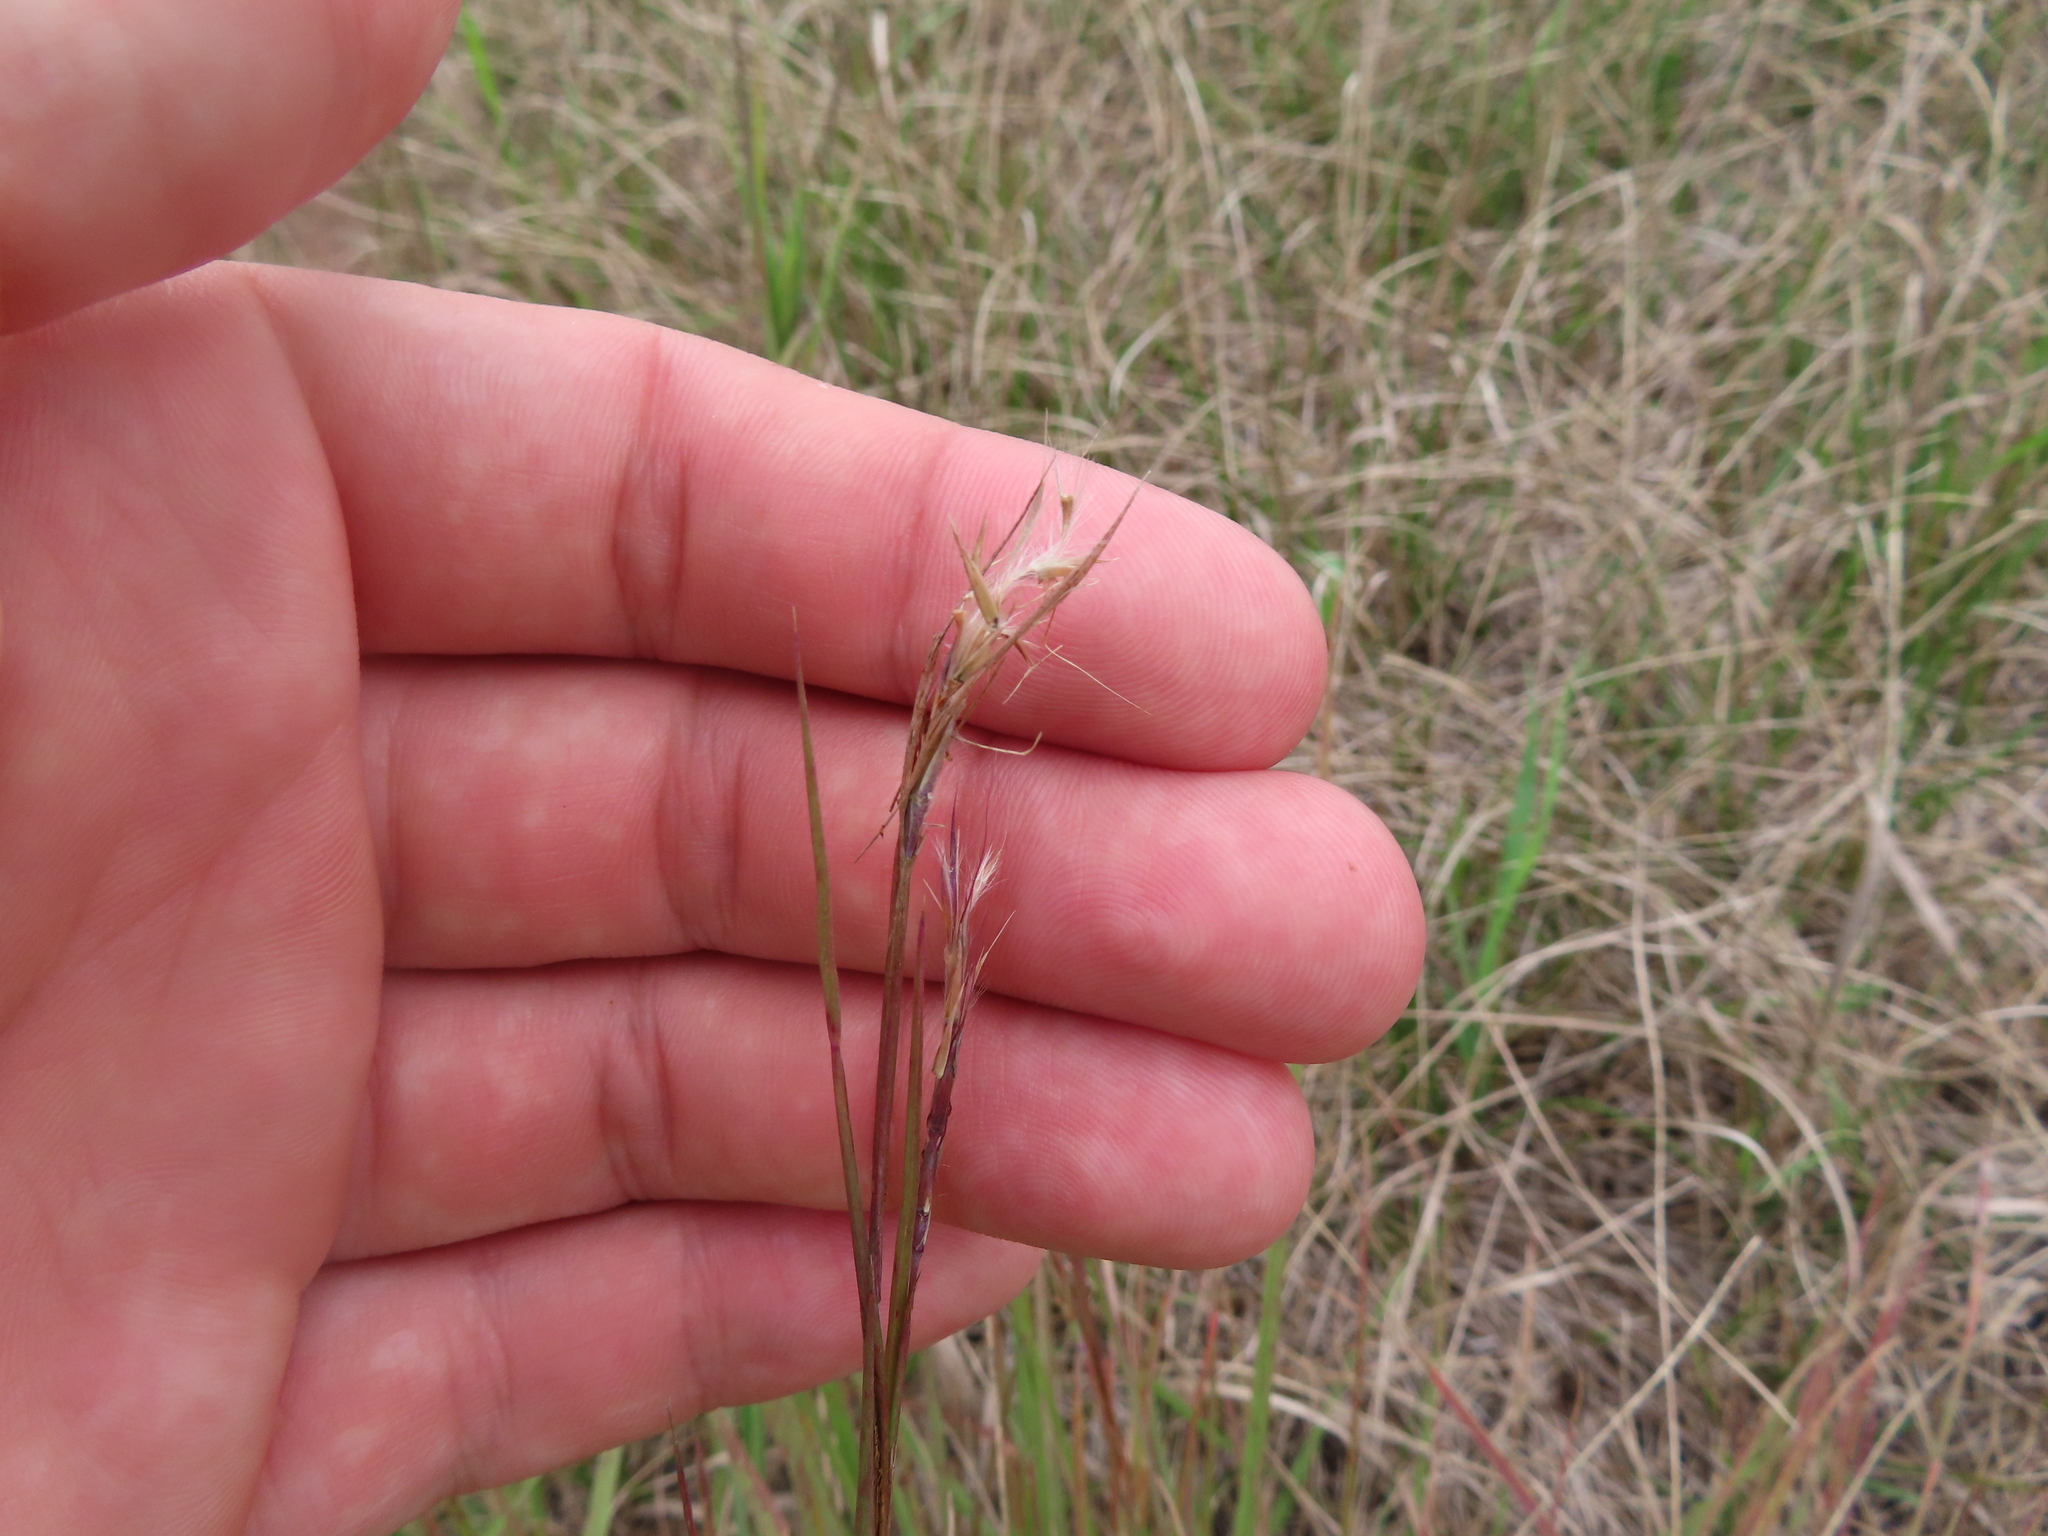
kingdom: Plantae
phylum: Tracheophyta
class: Liliopsida
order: Poales
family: Poaceae
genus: Schizachyrium
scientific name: Schizachyrium scoparium
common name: Little bluestem
